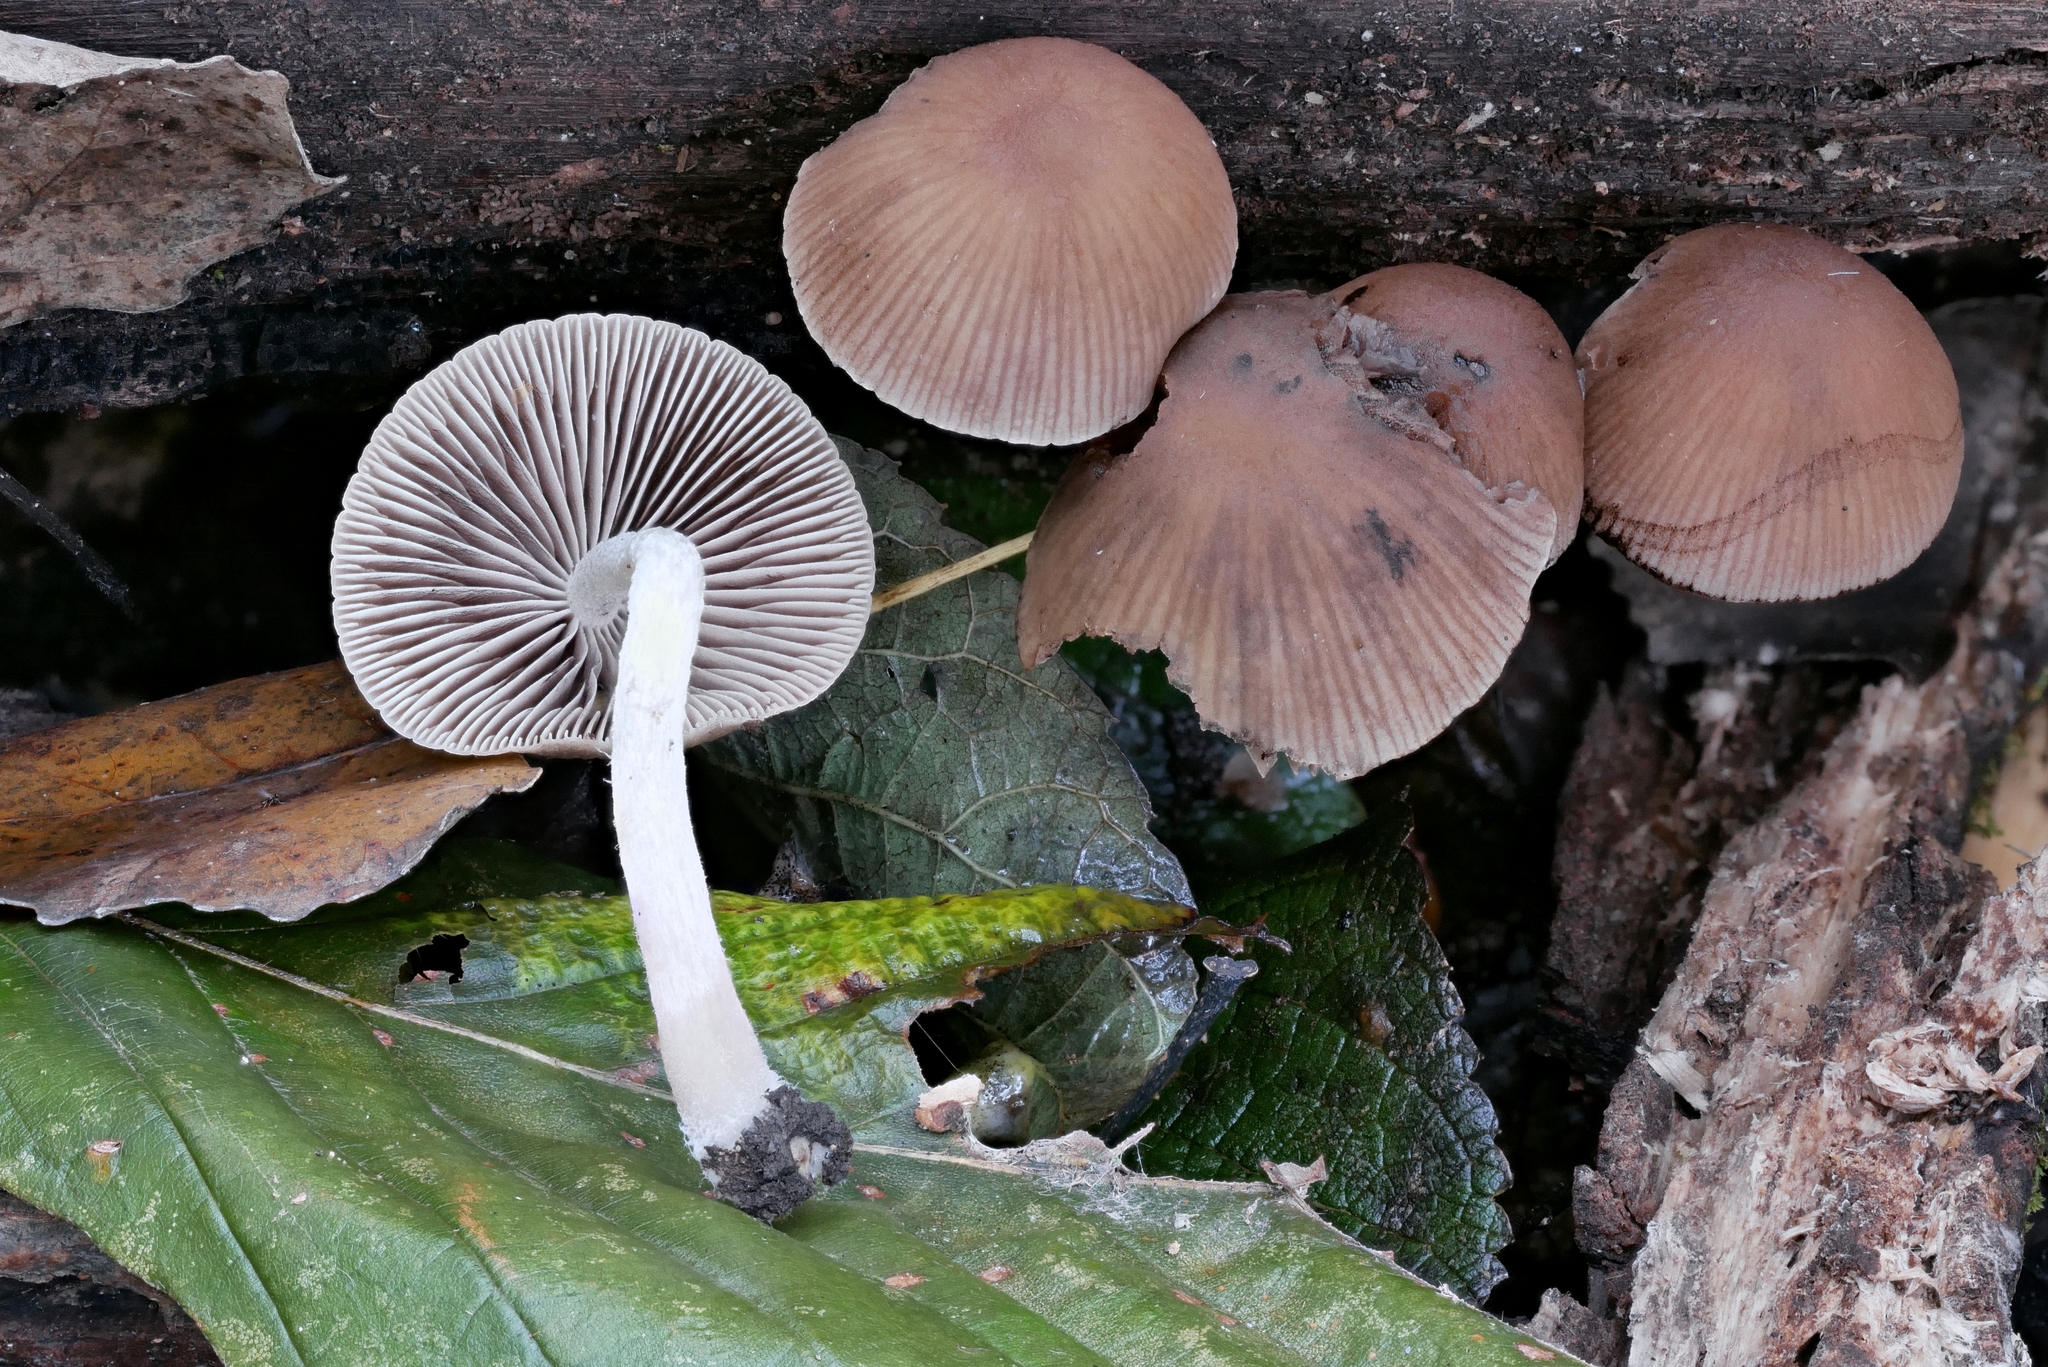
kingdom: Fungi
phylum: Basidiomycota
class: Agaricomycetes
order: Agaricales
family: Psathyrellaceae
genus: Psathyrella
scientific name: Psathyrella psammophila
